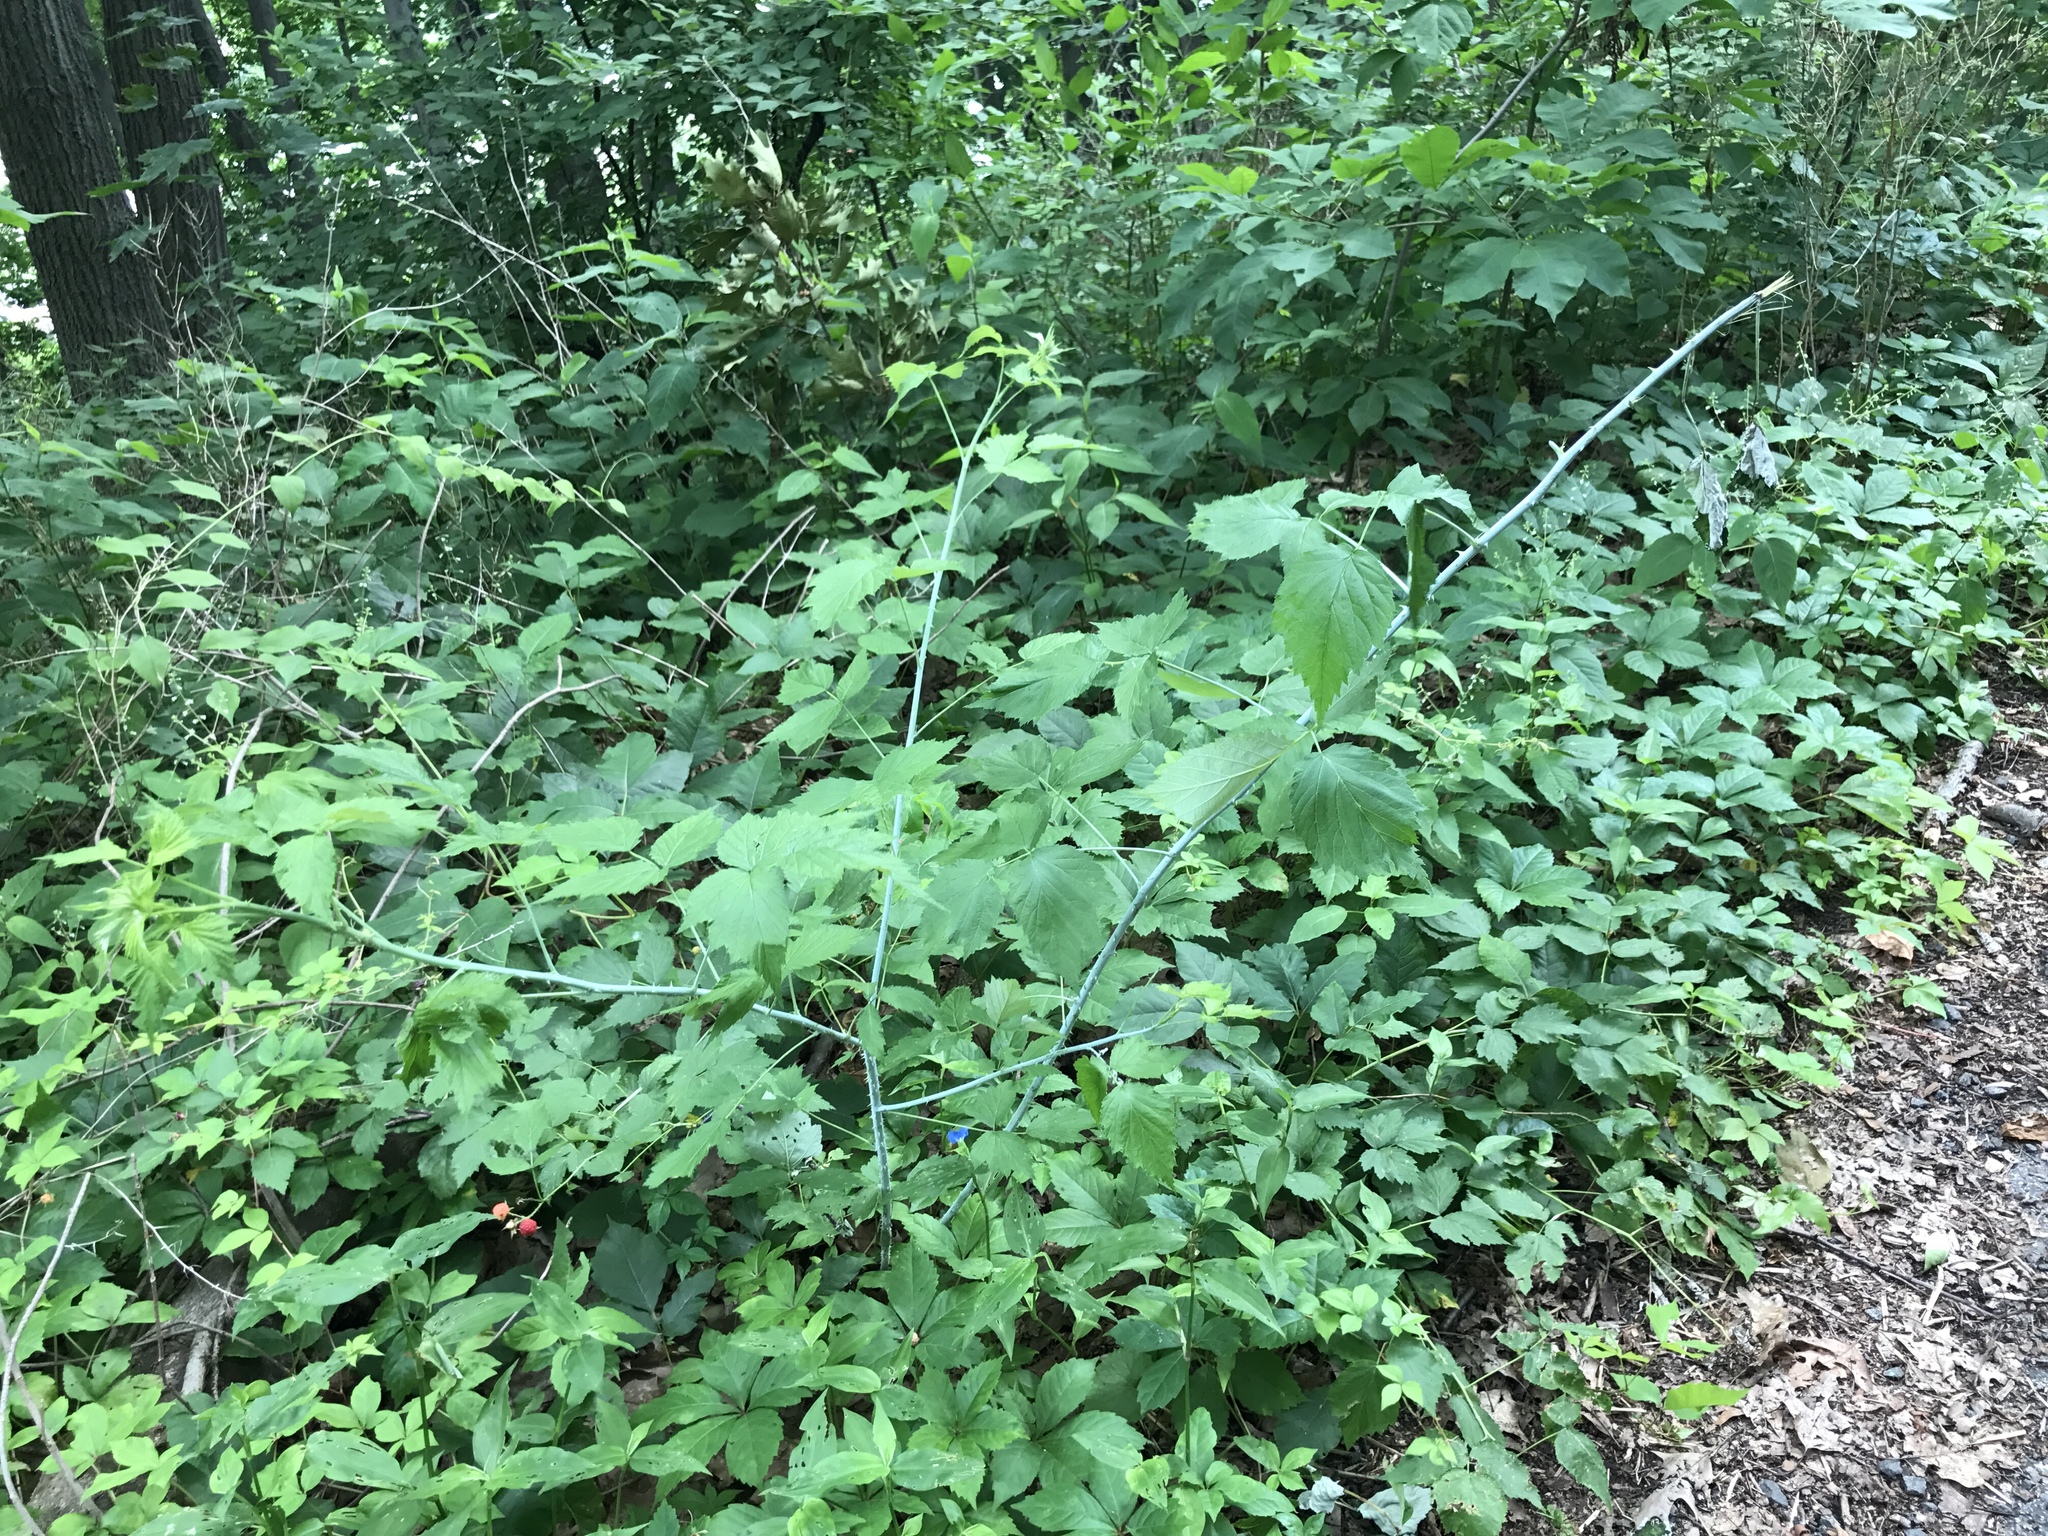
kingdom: Plantae
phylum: Tracheophyta
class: Magnoliopsida
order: Rosales
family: Rosaceae
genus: Rubus
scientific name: Rubus occidentalis
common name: Black raspberry
